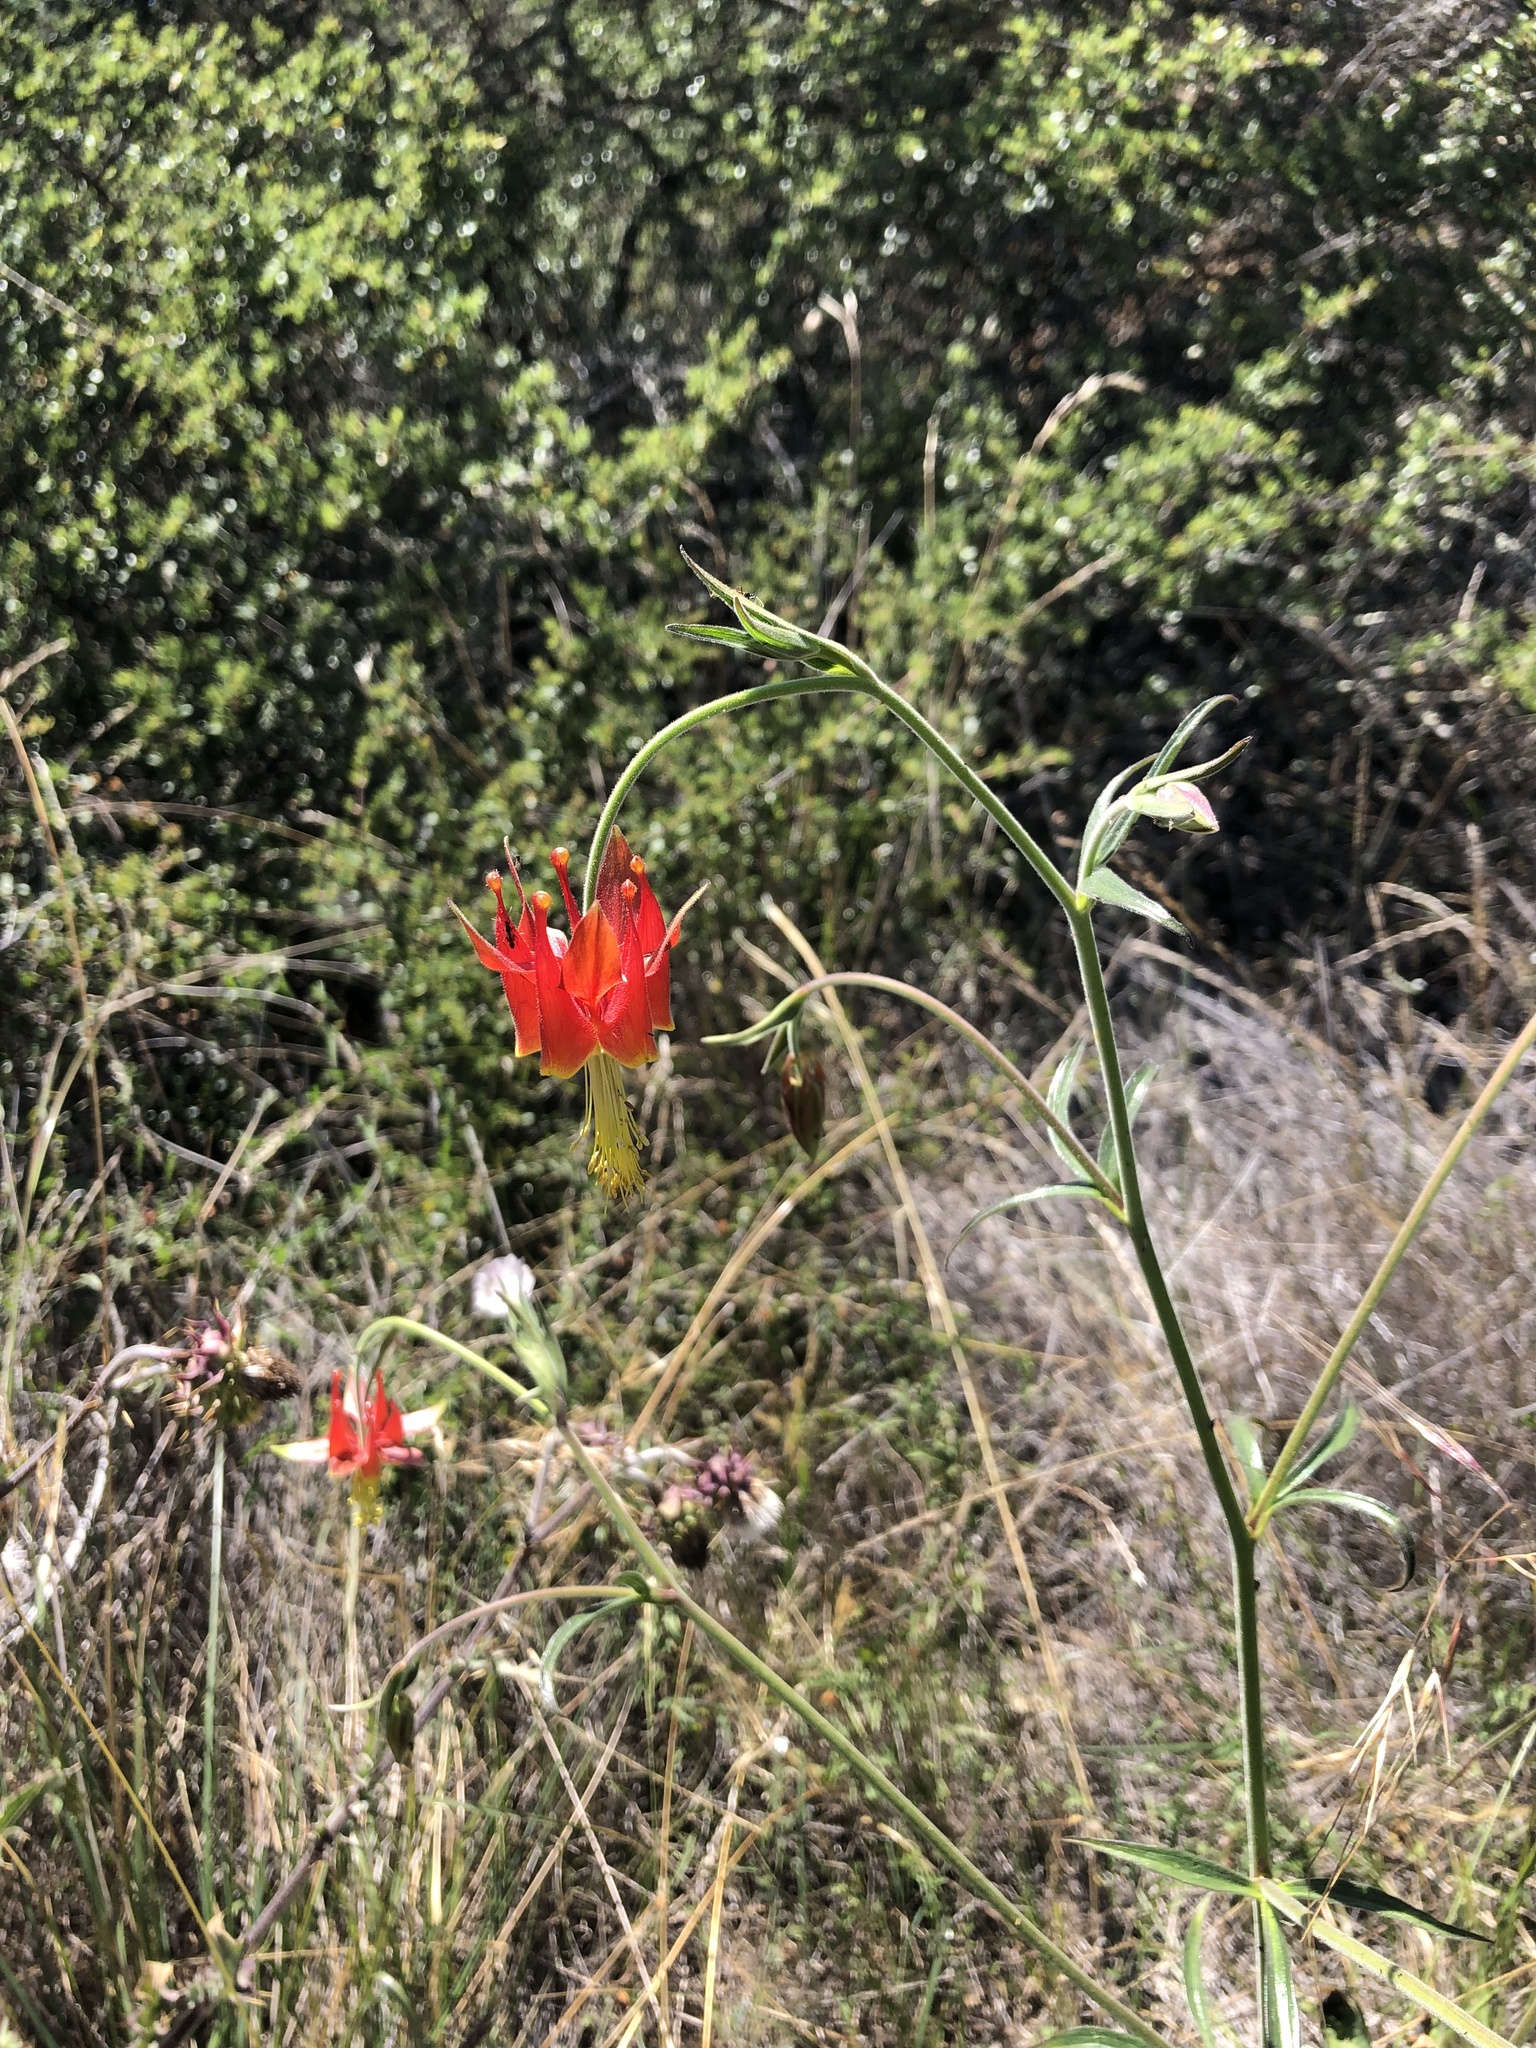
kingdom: Plantae
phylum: Tracheophyta
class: Magnoliopsida
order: Ranunculales
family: Ranunculaceae
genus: Aquilegia
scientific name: Aquilegia eximia
